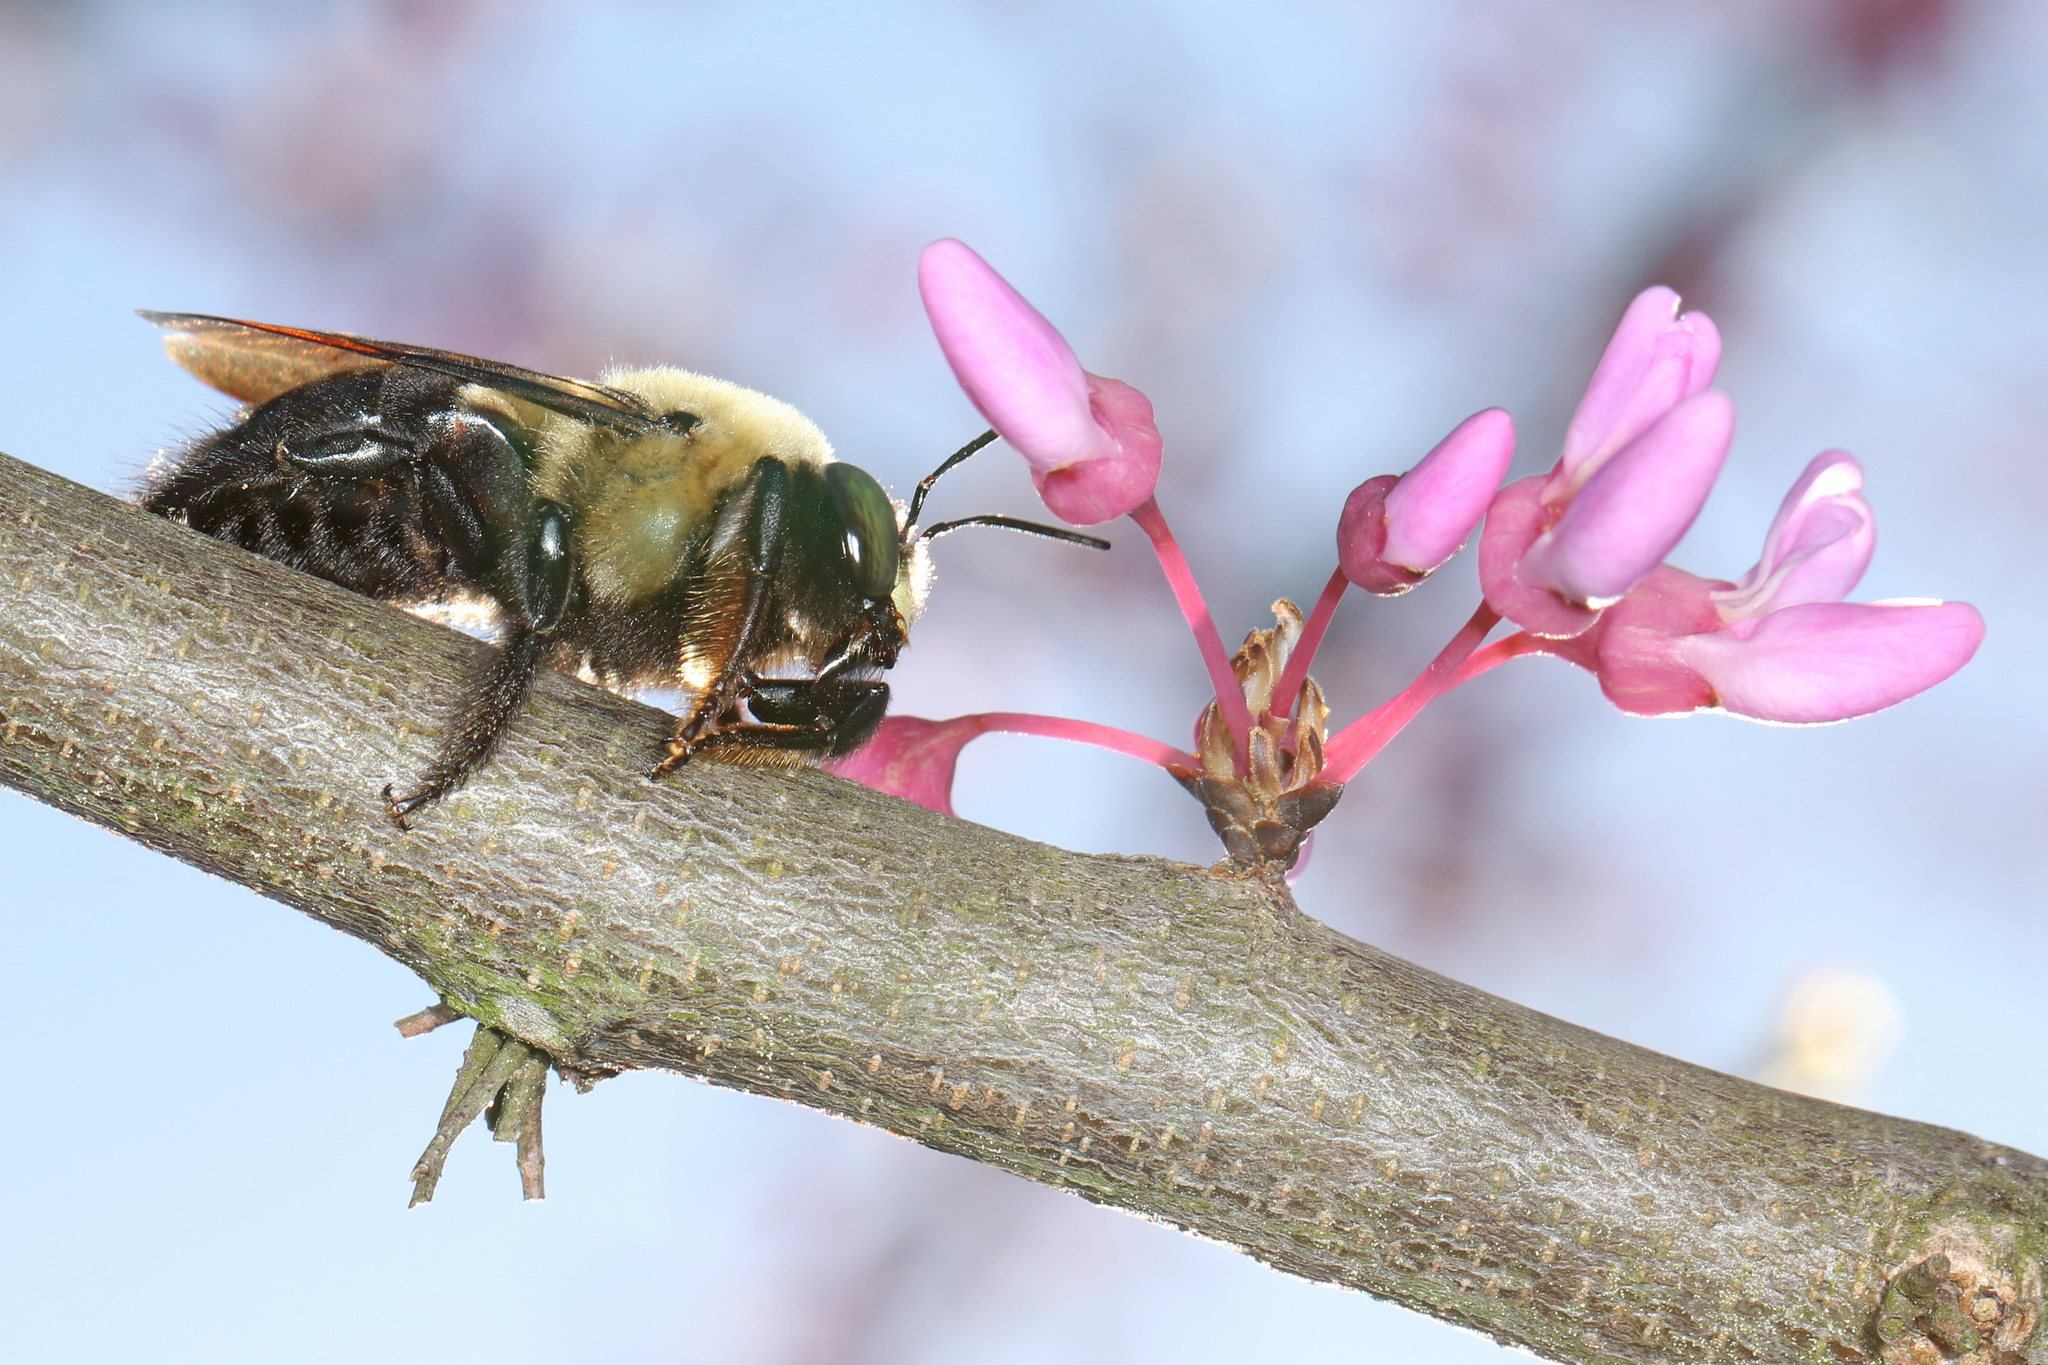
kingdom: Animalia
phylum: Arthropoda
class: Insecta
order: Hymenoptera
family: Apidae
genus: Xylocopa
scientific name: Xylocopa virginica
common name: Carpenter bee
